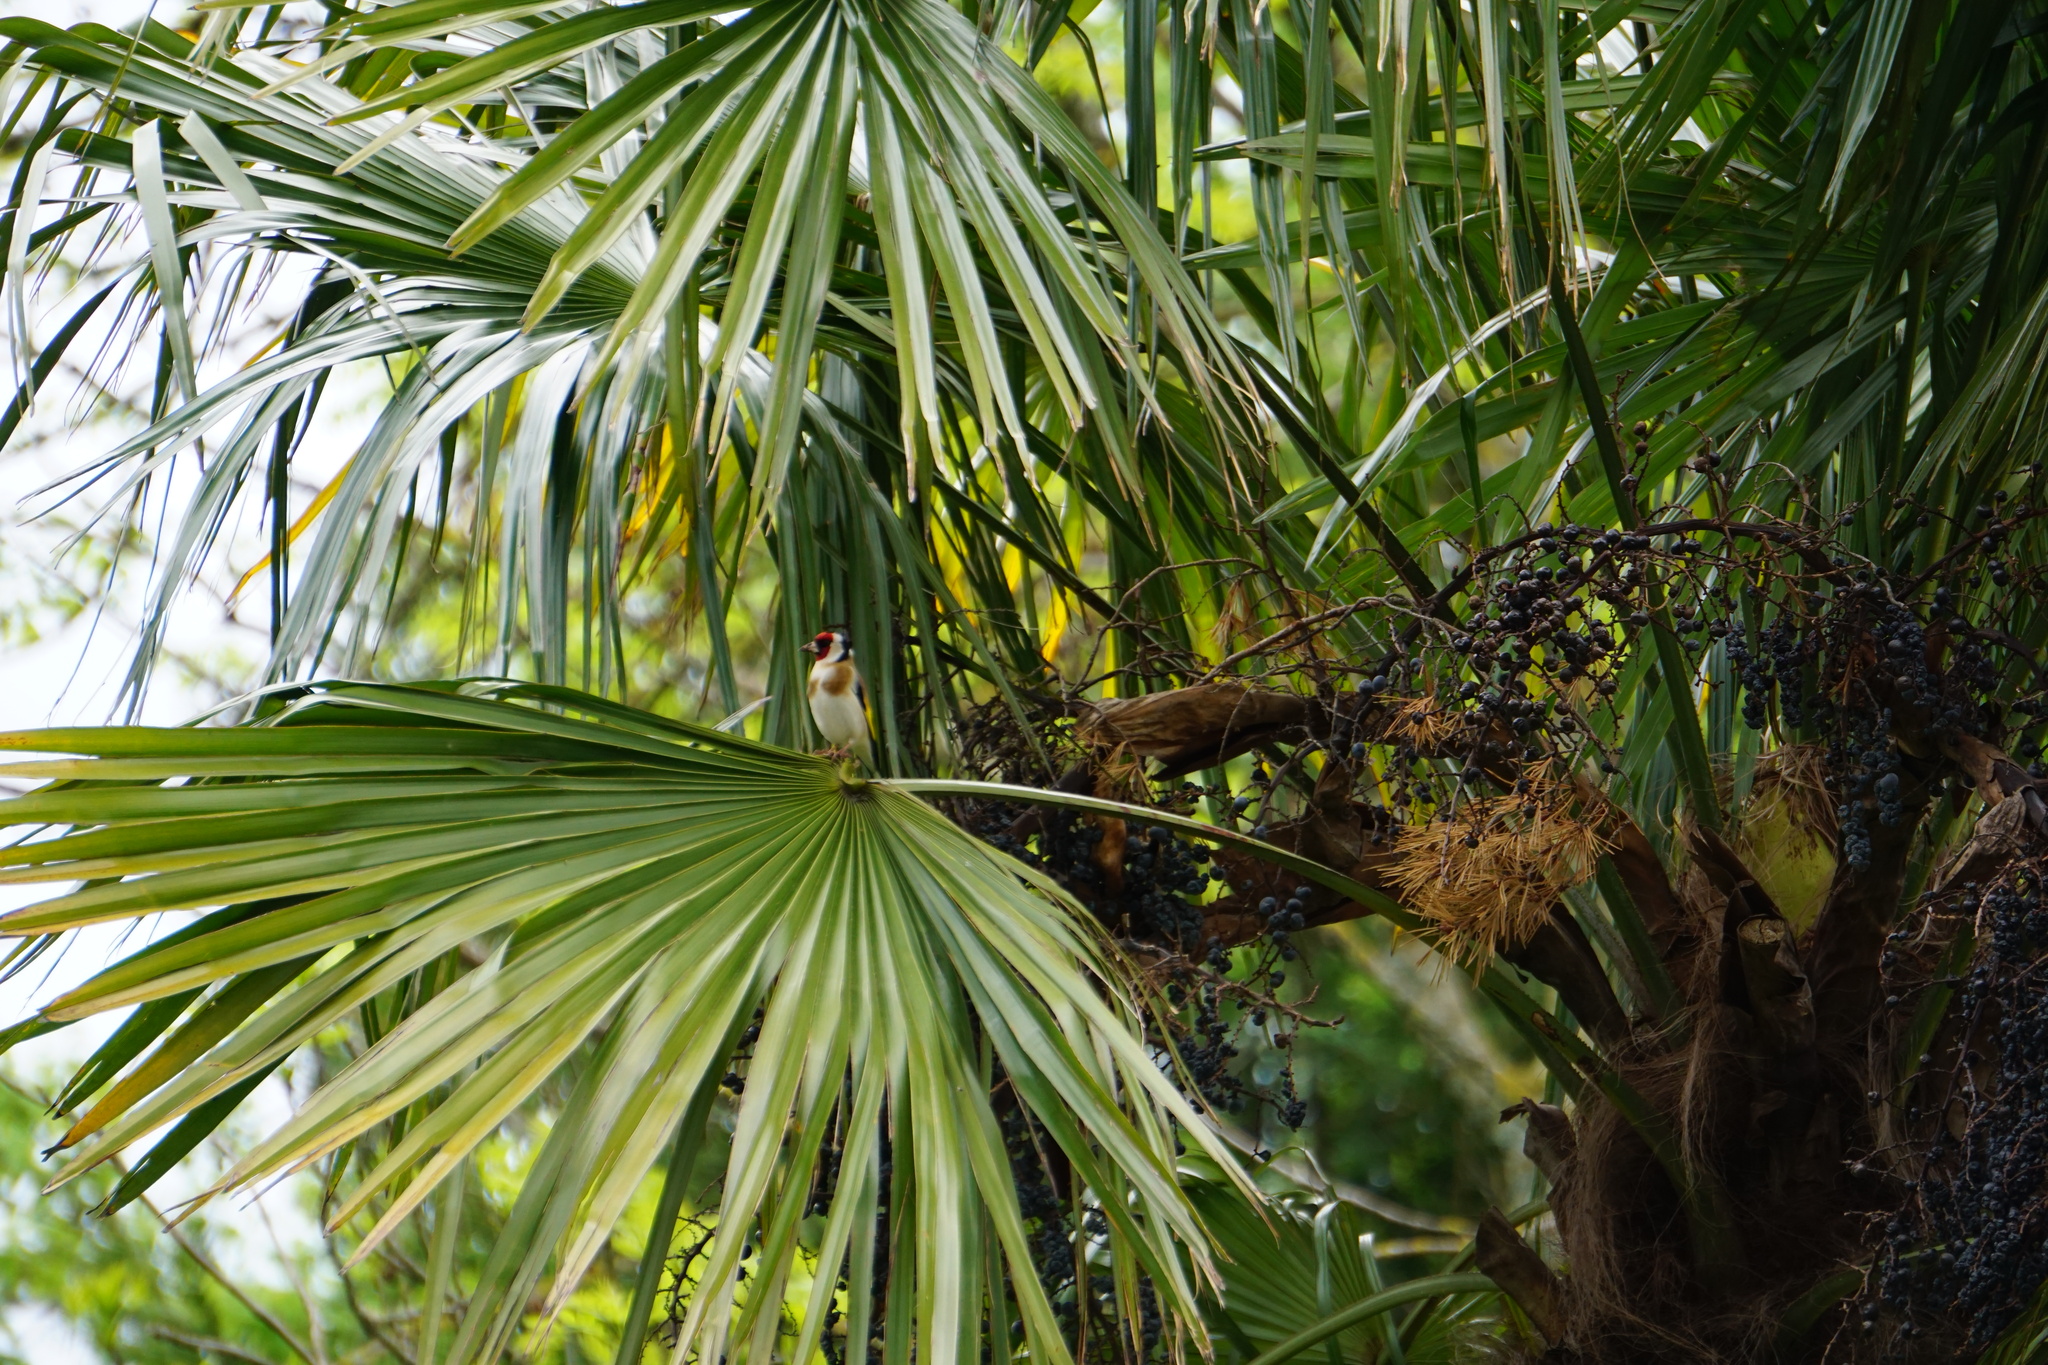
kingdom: Animalia
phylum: Chordata
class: Aves
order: Passeriformes
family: Fringillidae
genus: Carduelis
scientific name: Carduelis carduelis
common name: European goldfinch
